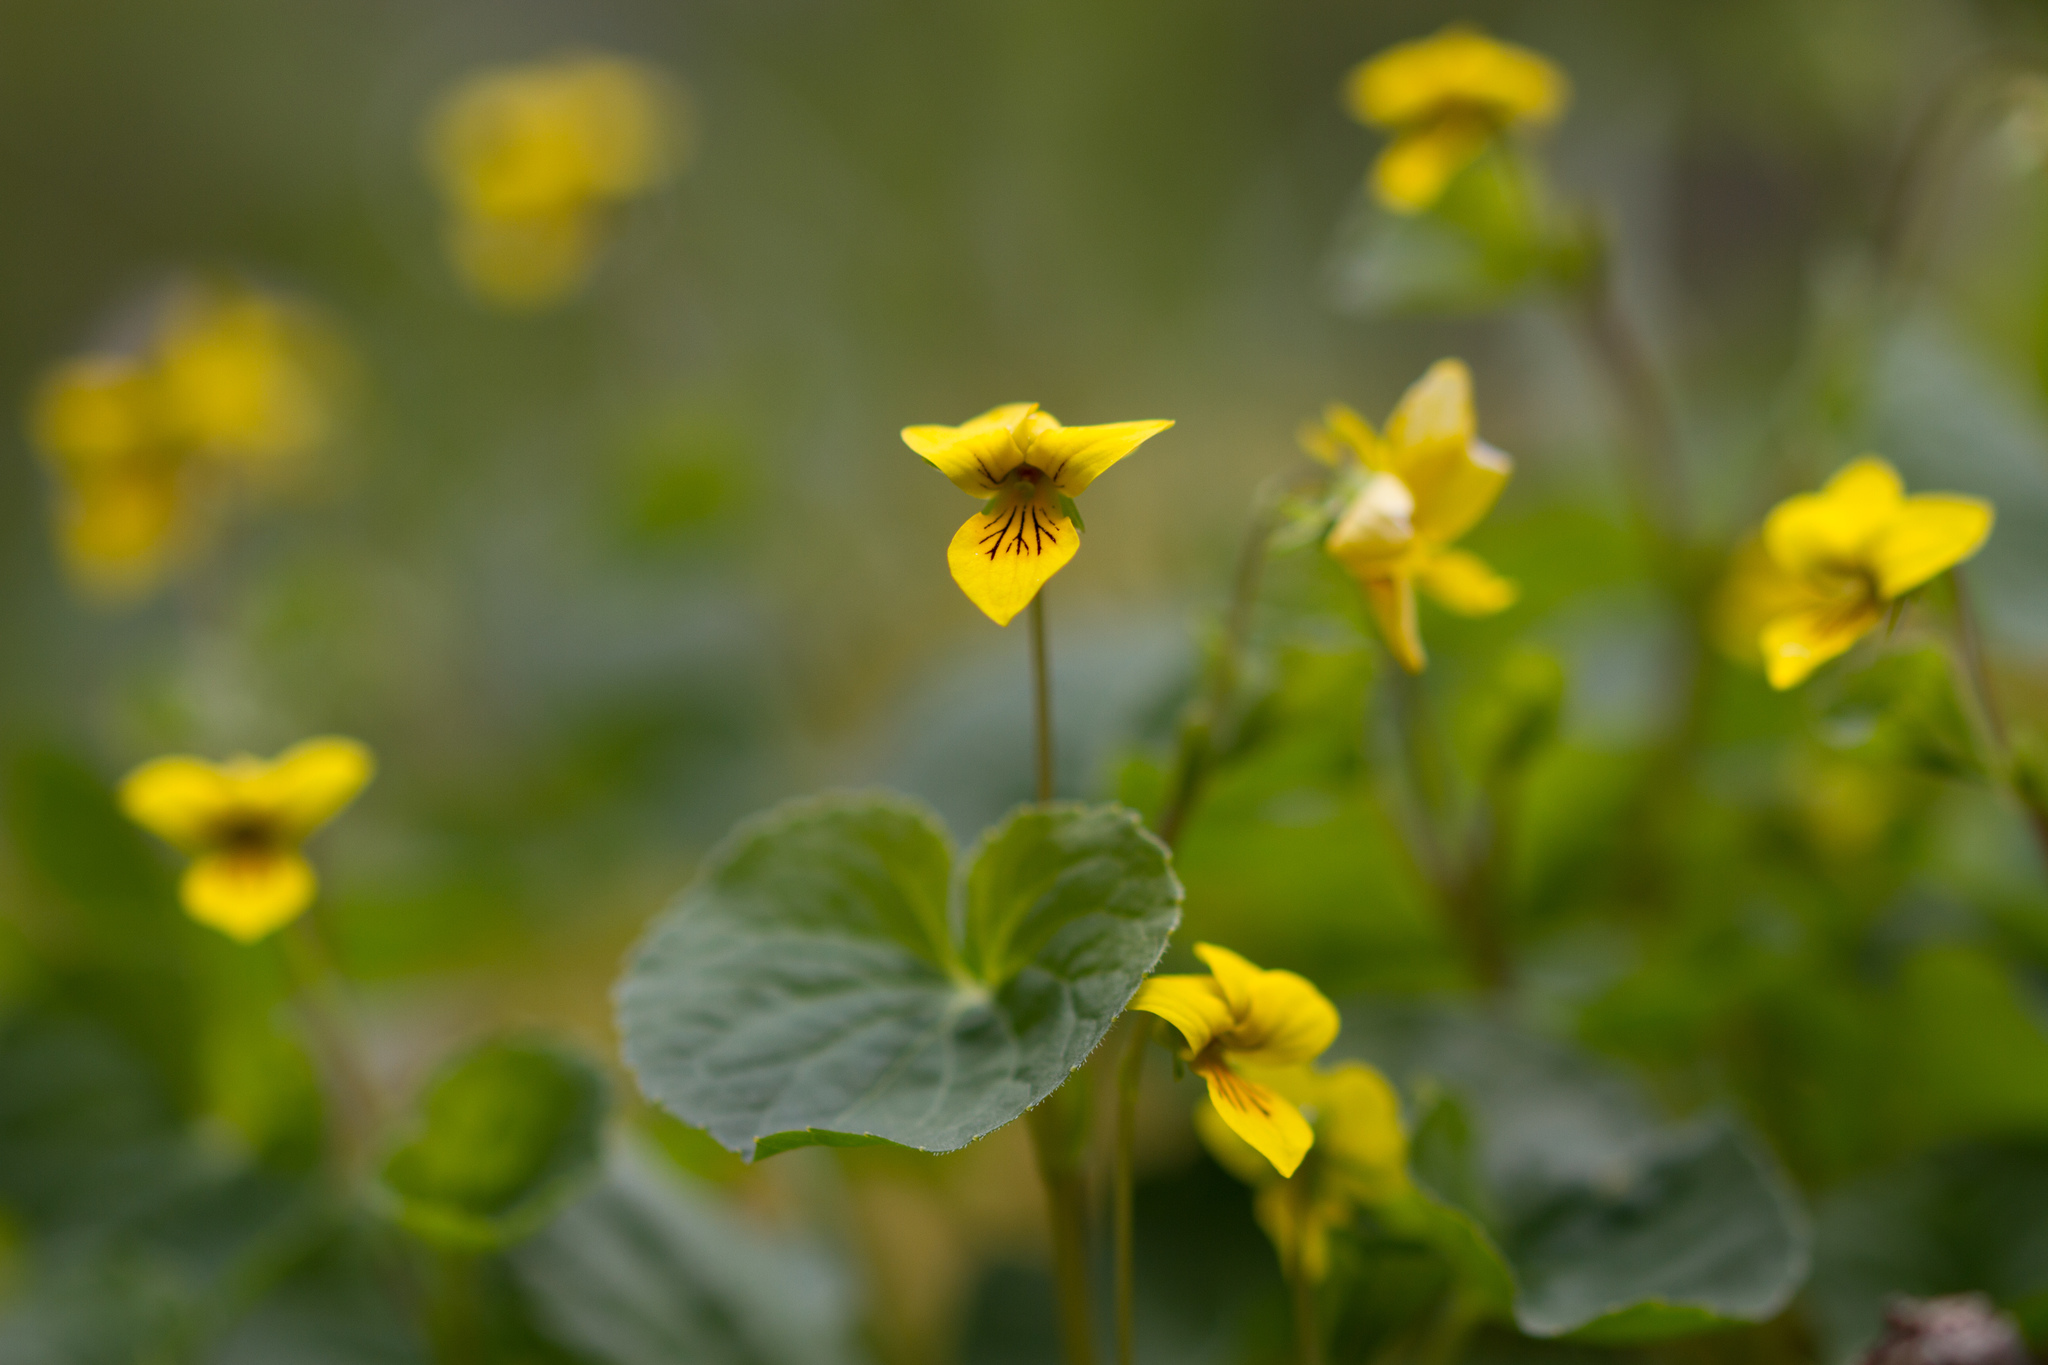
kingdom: Plantae
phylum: Tracheophyta
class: Magnoliopsida
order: Malpighiales
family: Violaceae
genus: Viola
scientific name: Viola biflora
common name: Alpine yellow violet
